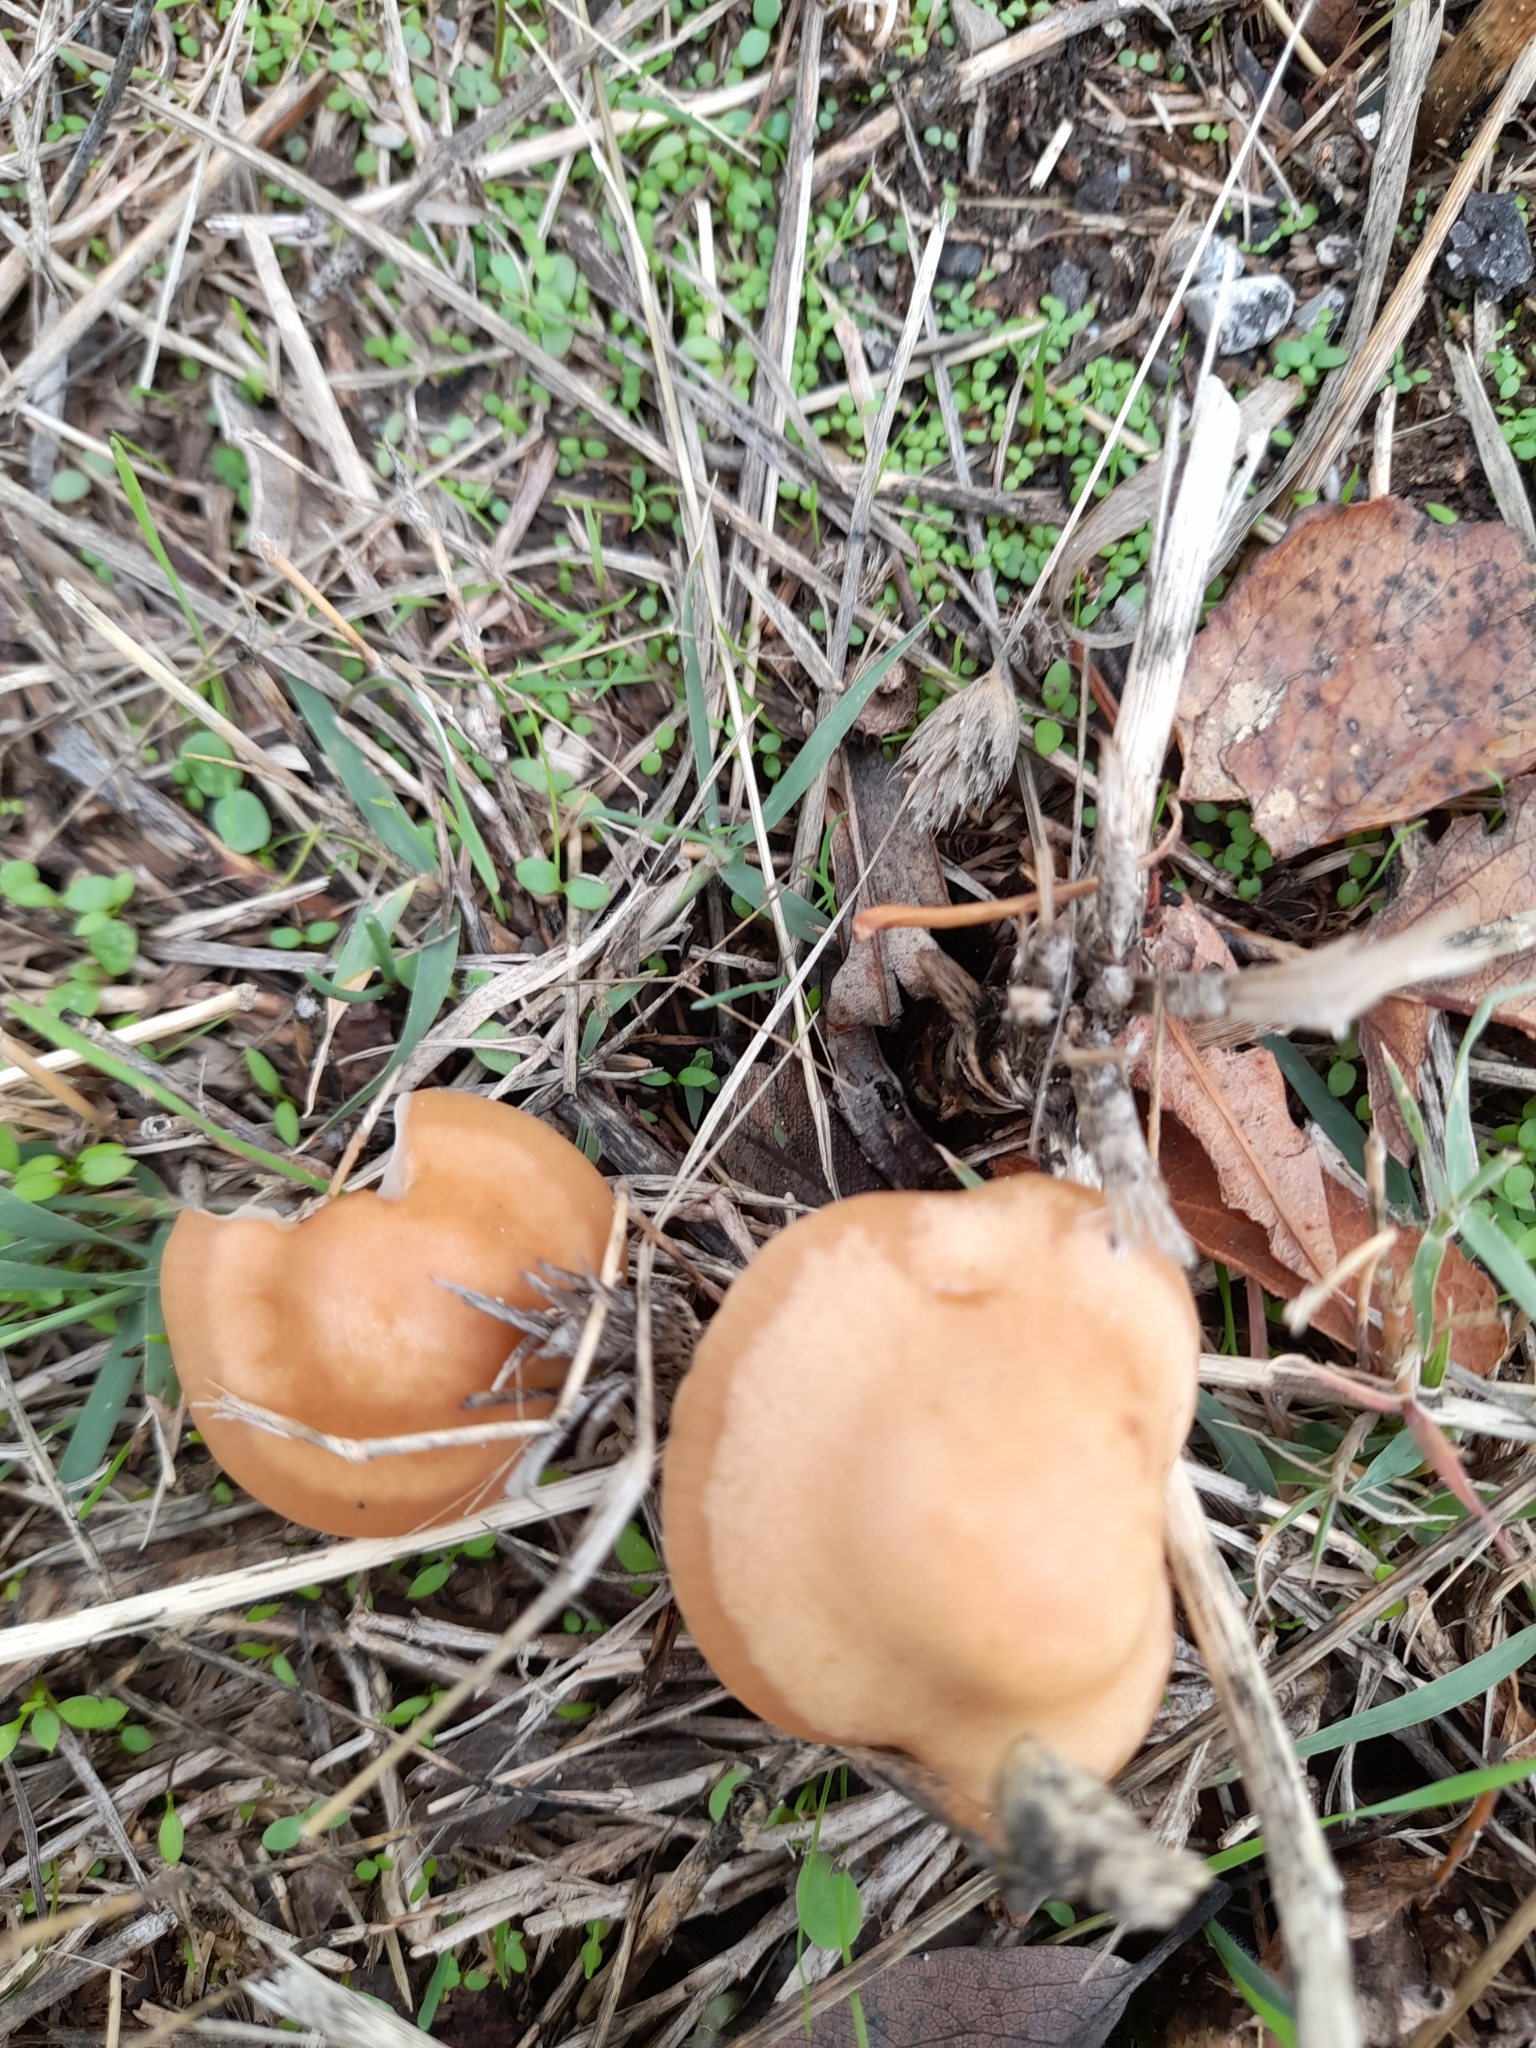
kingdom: Fungi
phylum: Basidiomycota
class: Agaricomycetes
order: Agaricales
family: Marasmiaceae
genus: Marasmius
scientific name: Marasmius oreades
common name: Fairy ring champignon
